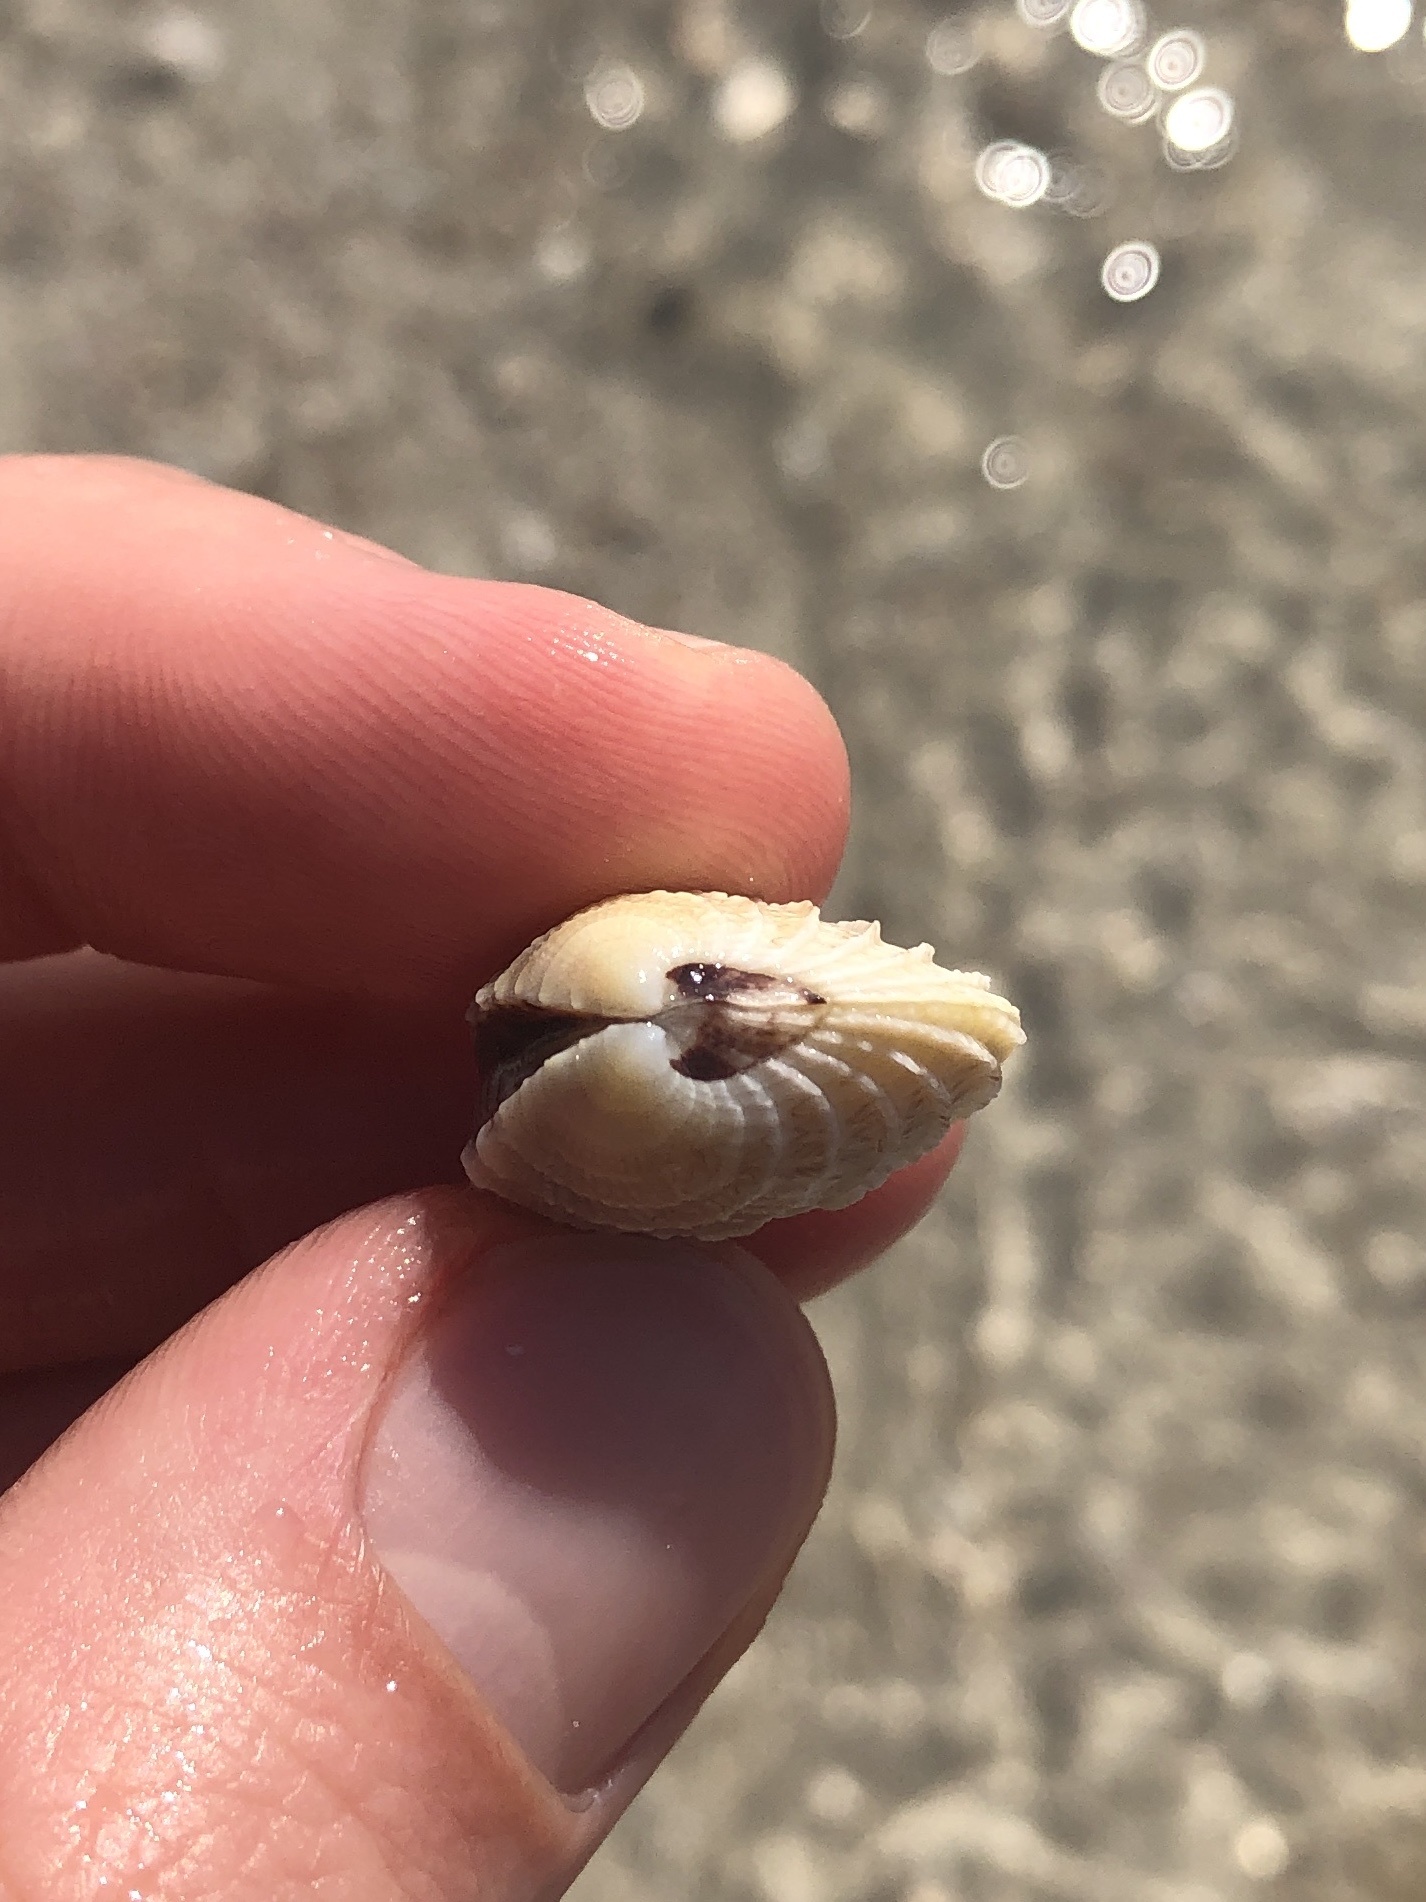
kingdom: Animalia
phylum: Mollusca
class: Bivalvia
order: Venerida
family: Veneridae
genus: Chione
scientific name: Chione elevata
